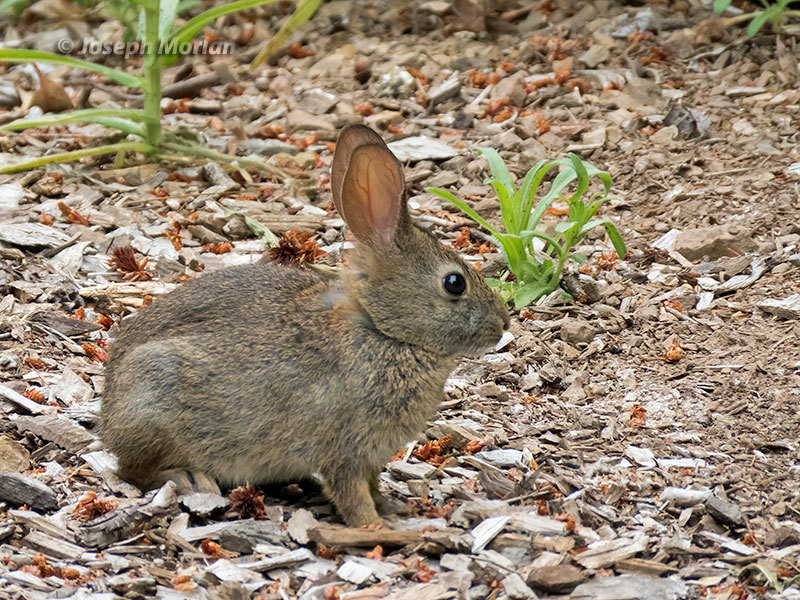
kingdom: Animalia
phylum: Chordata
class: Mammalia
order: Lagomorpha
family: Leporidae
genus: Sylvilagus
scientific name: Sylvilagus bachmani
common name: Brush rabbit
